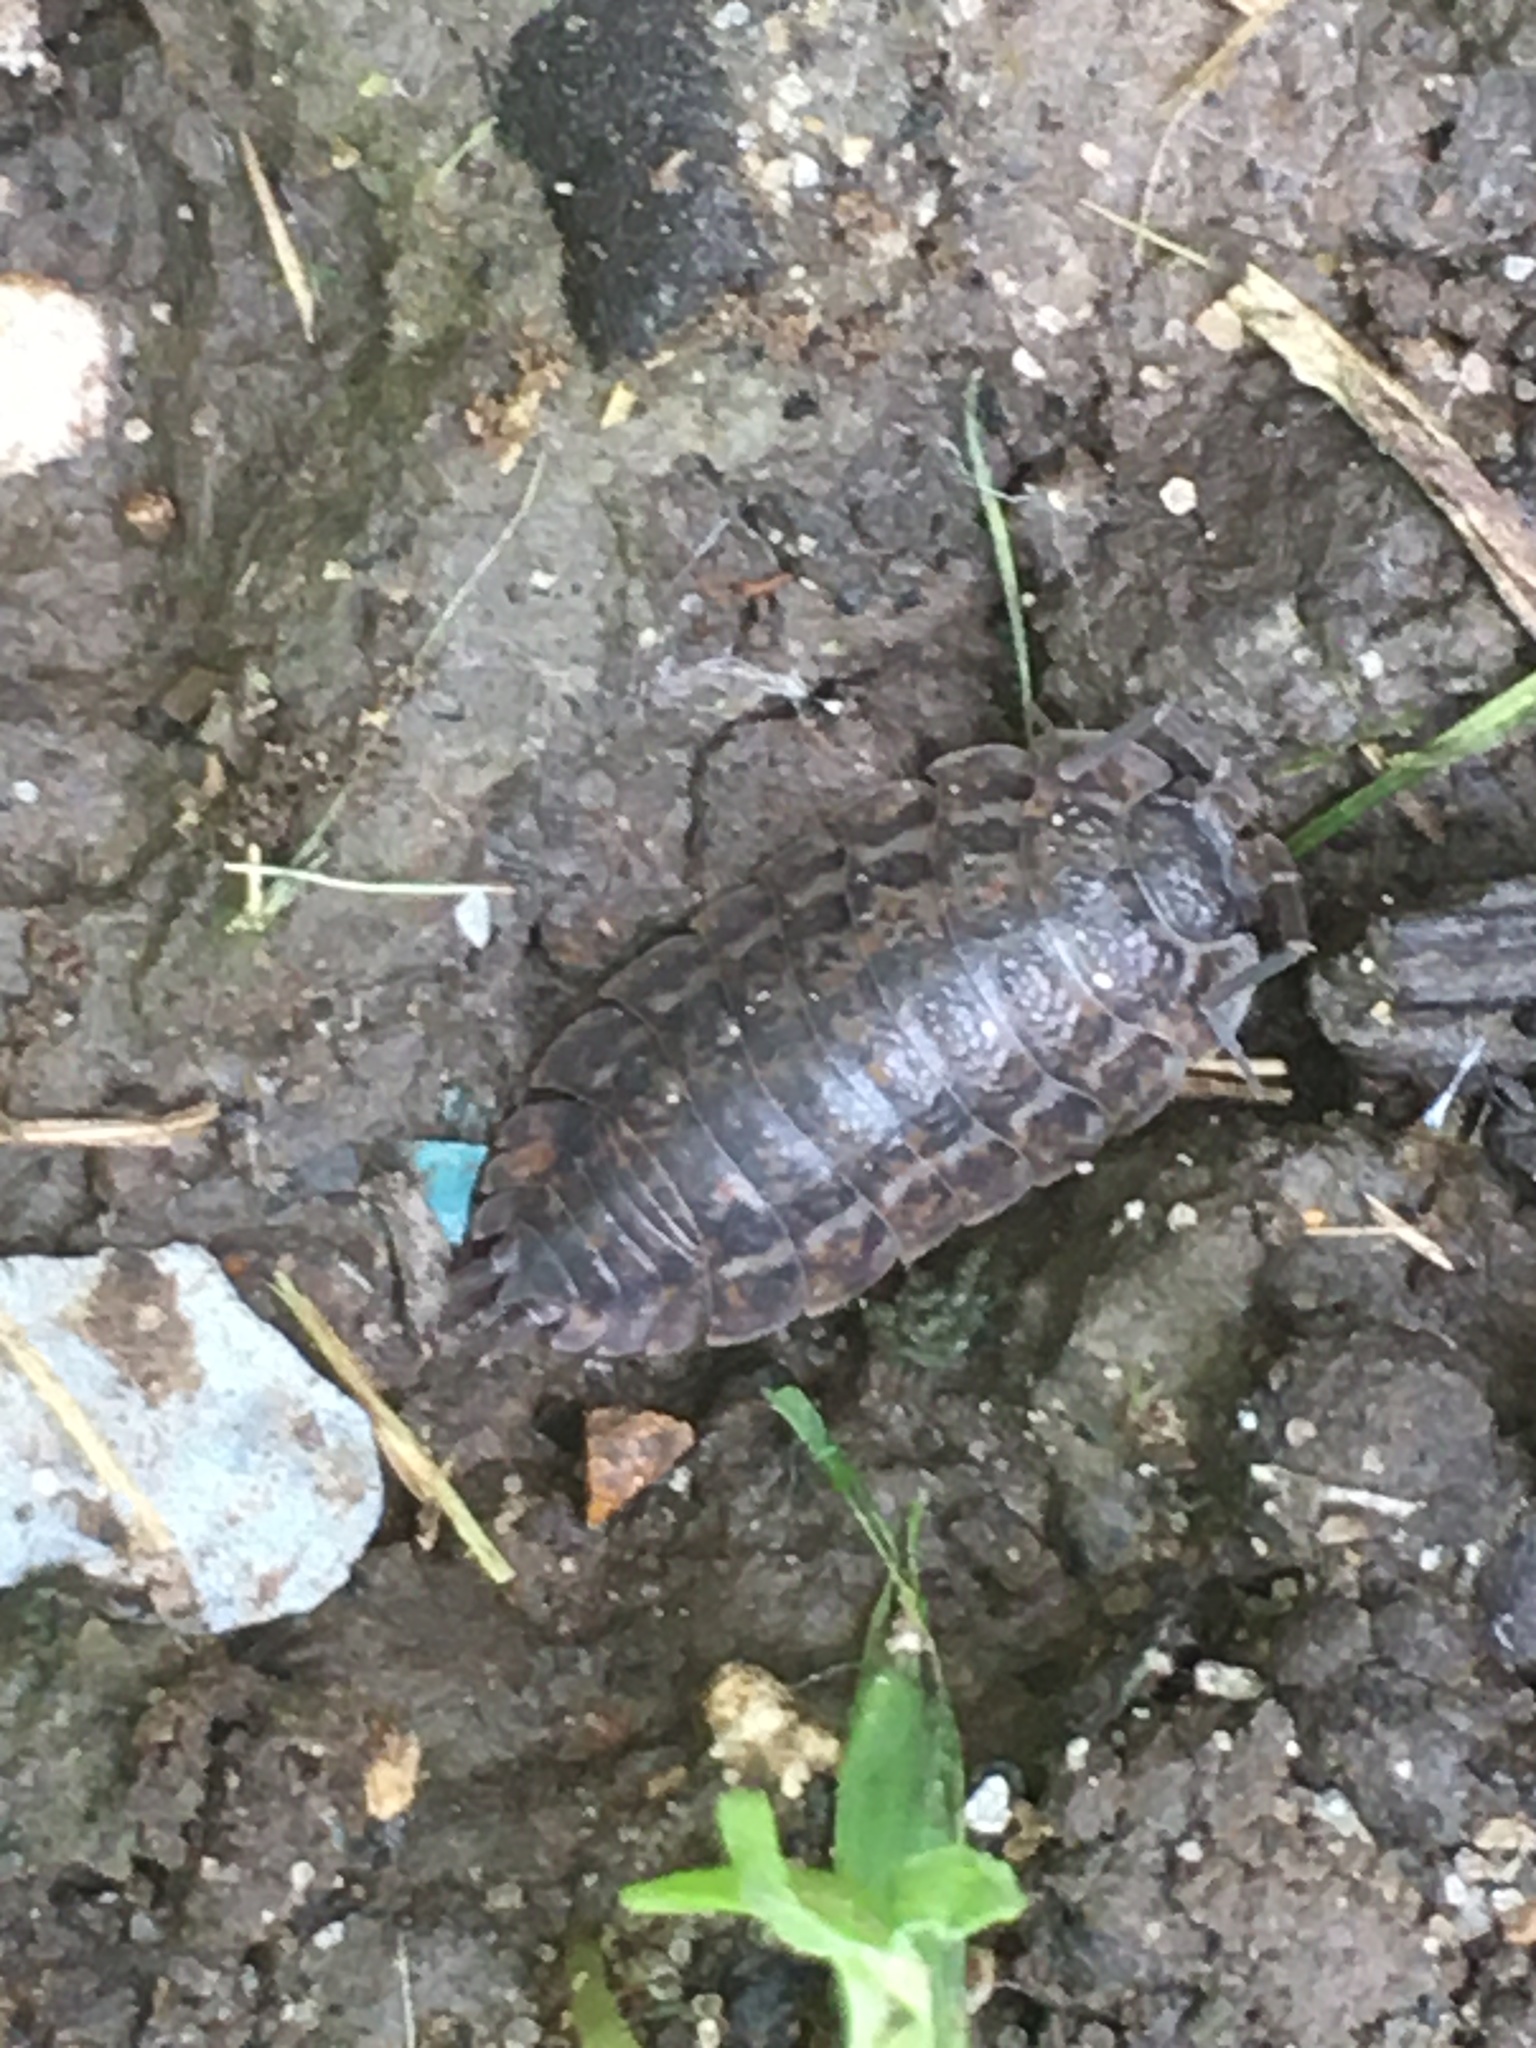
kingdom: Animalia
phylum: Arthropoda
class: Malacostraca
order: Isopoda
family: Trachelipodidae
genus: Trachelipus
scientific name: Trachelipus rathkii
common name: Isopod
